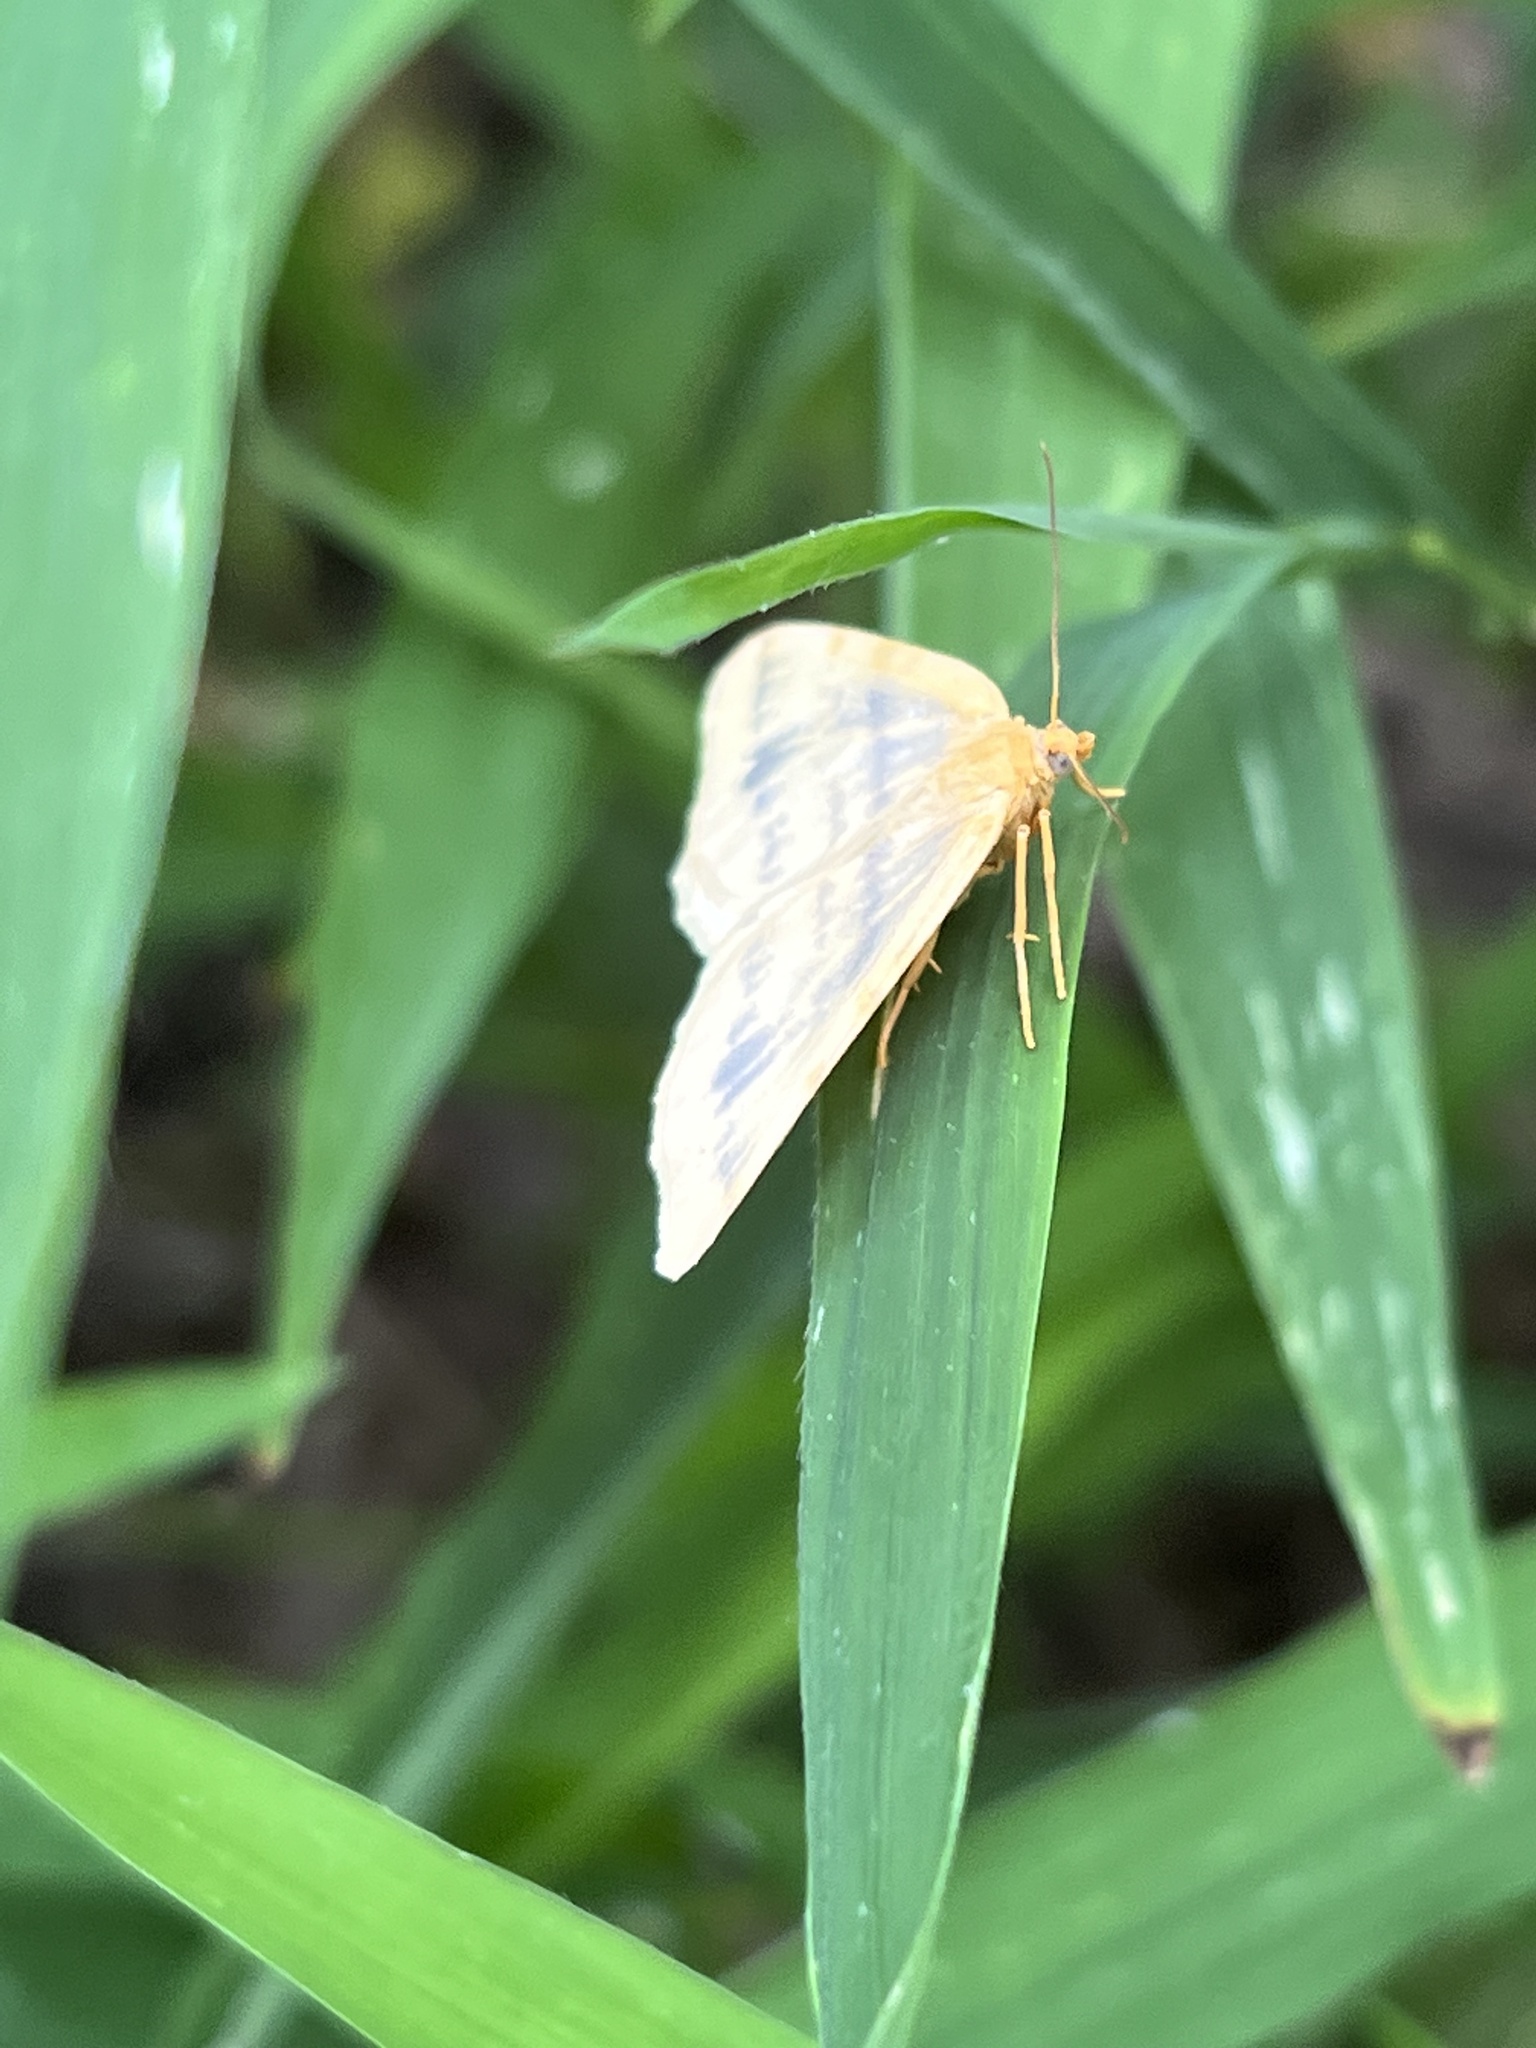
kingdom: Animalia
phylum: Arthropoda
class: Insecta
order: Lepidoptera
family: Geometridae
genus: Macaria
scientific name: Macaria ribearia
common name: Currant spanworm moth
